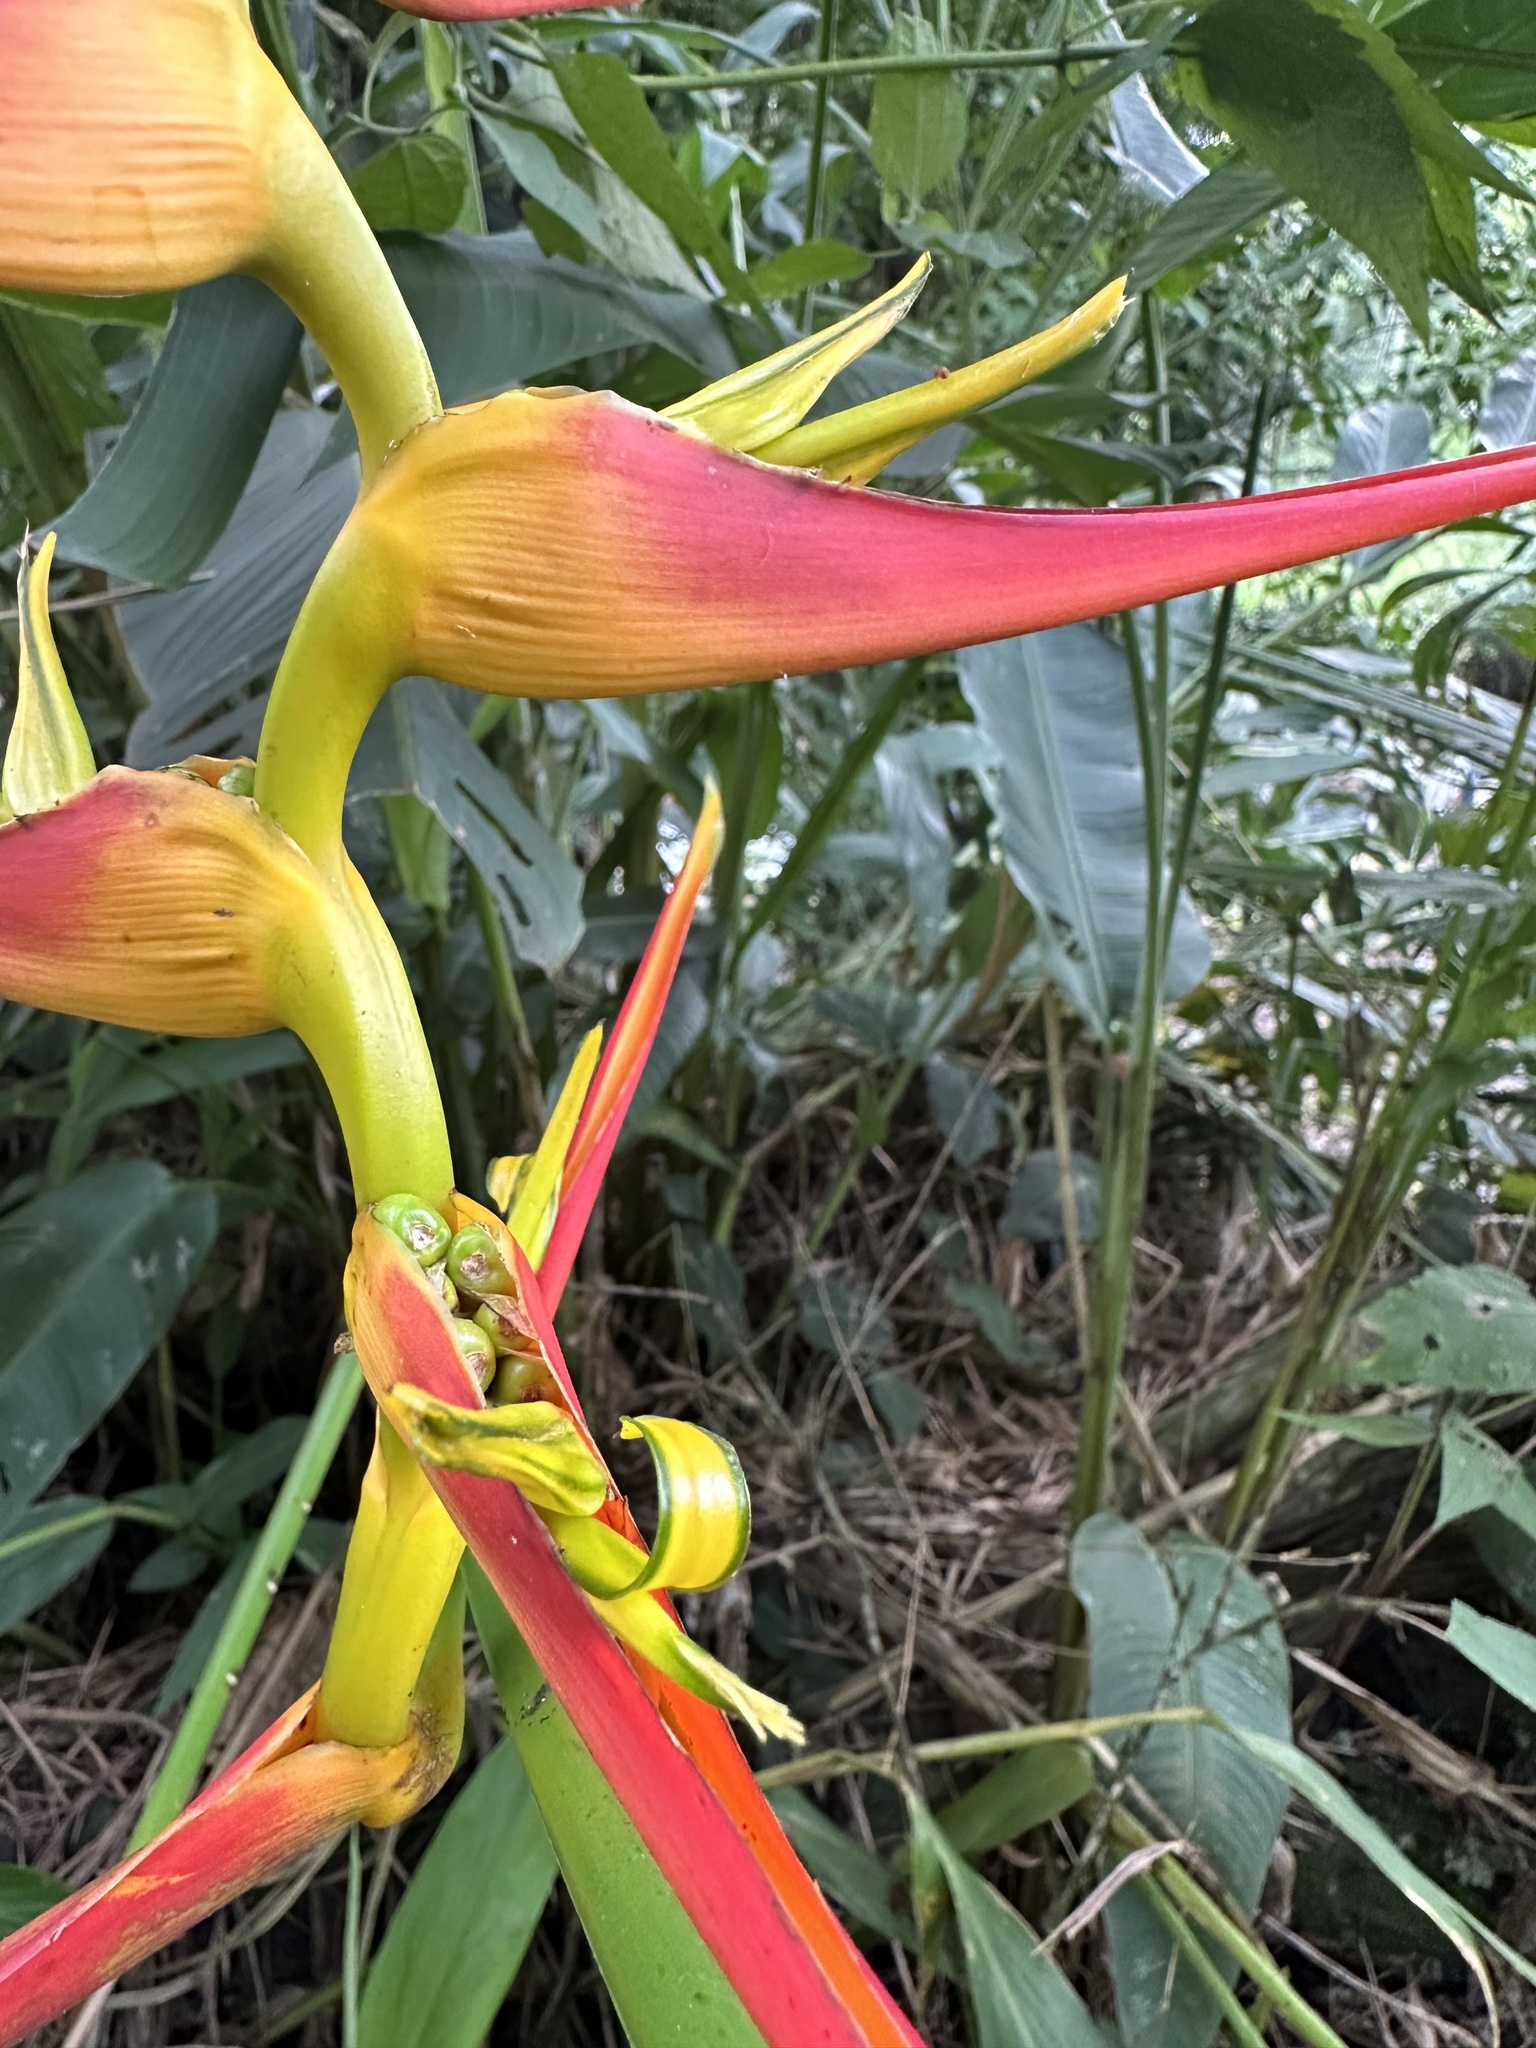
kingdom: Plantae
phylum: Tracheophyta
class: Liliopsida
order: Zingiberales
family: Heliconiaceae
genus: Heliconia
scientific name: Heliconia latispatha
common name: Expanded lobsterclaw
